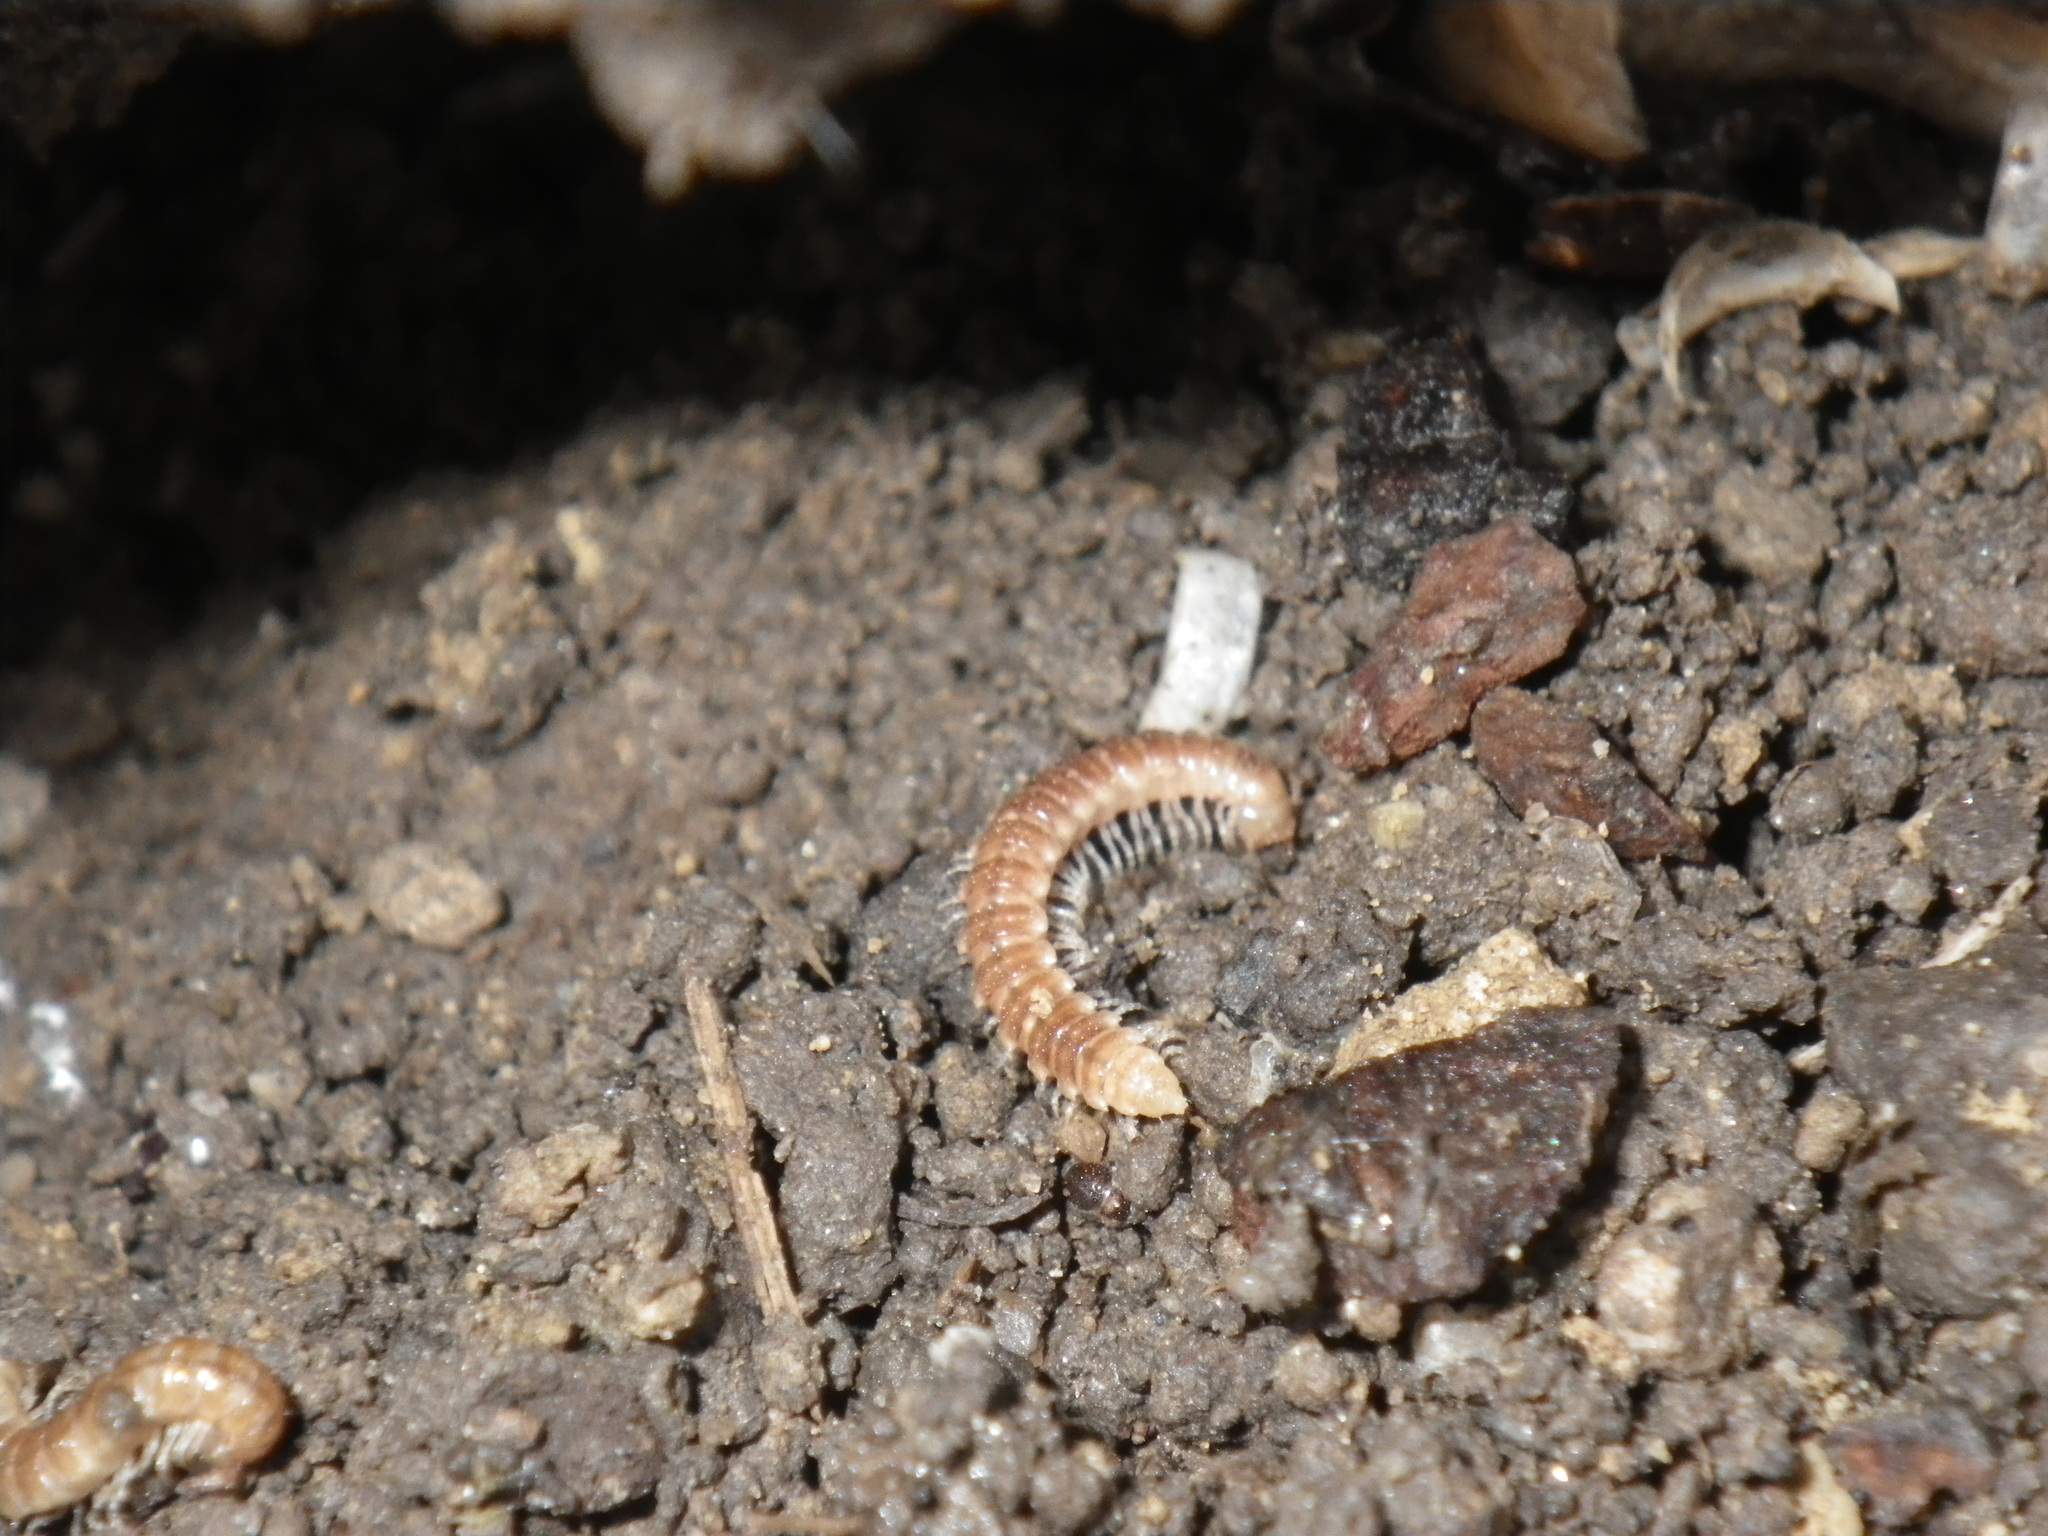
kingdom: Animalia
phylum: Arthropoda
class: Diplopoda
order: Polydesmida
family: Paradoxosomatidae
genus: Oxidus
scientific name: Oxidus gracilis
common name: Greenhouse millipede
